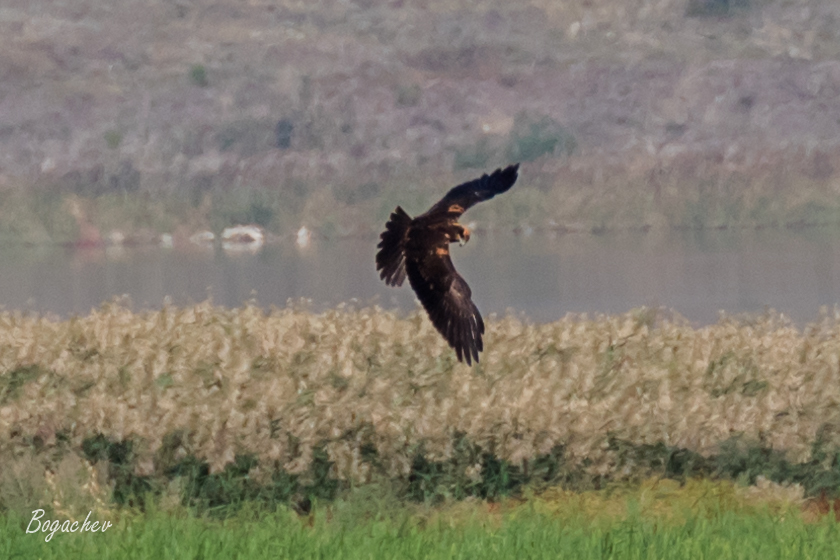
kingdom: Animalia
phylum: Chordata
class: Aves
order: Accipitriformes
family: Accipitridae
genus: Circus
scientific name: Circus aeruginosus
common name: Western marsh harrier
